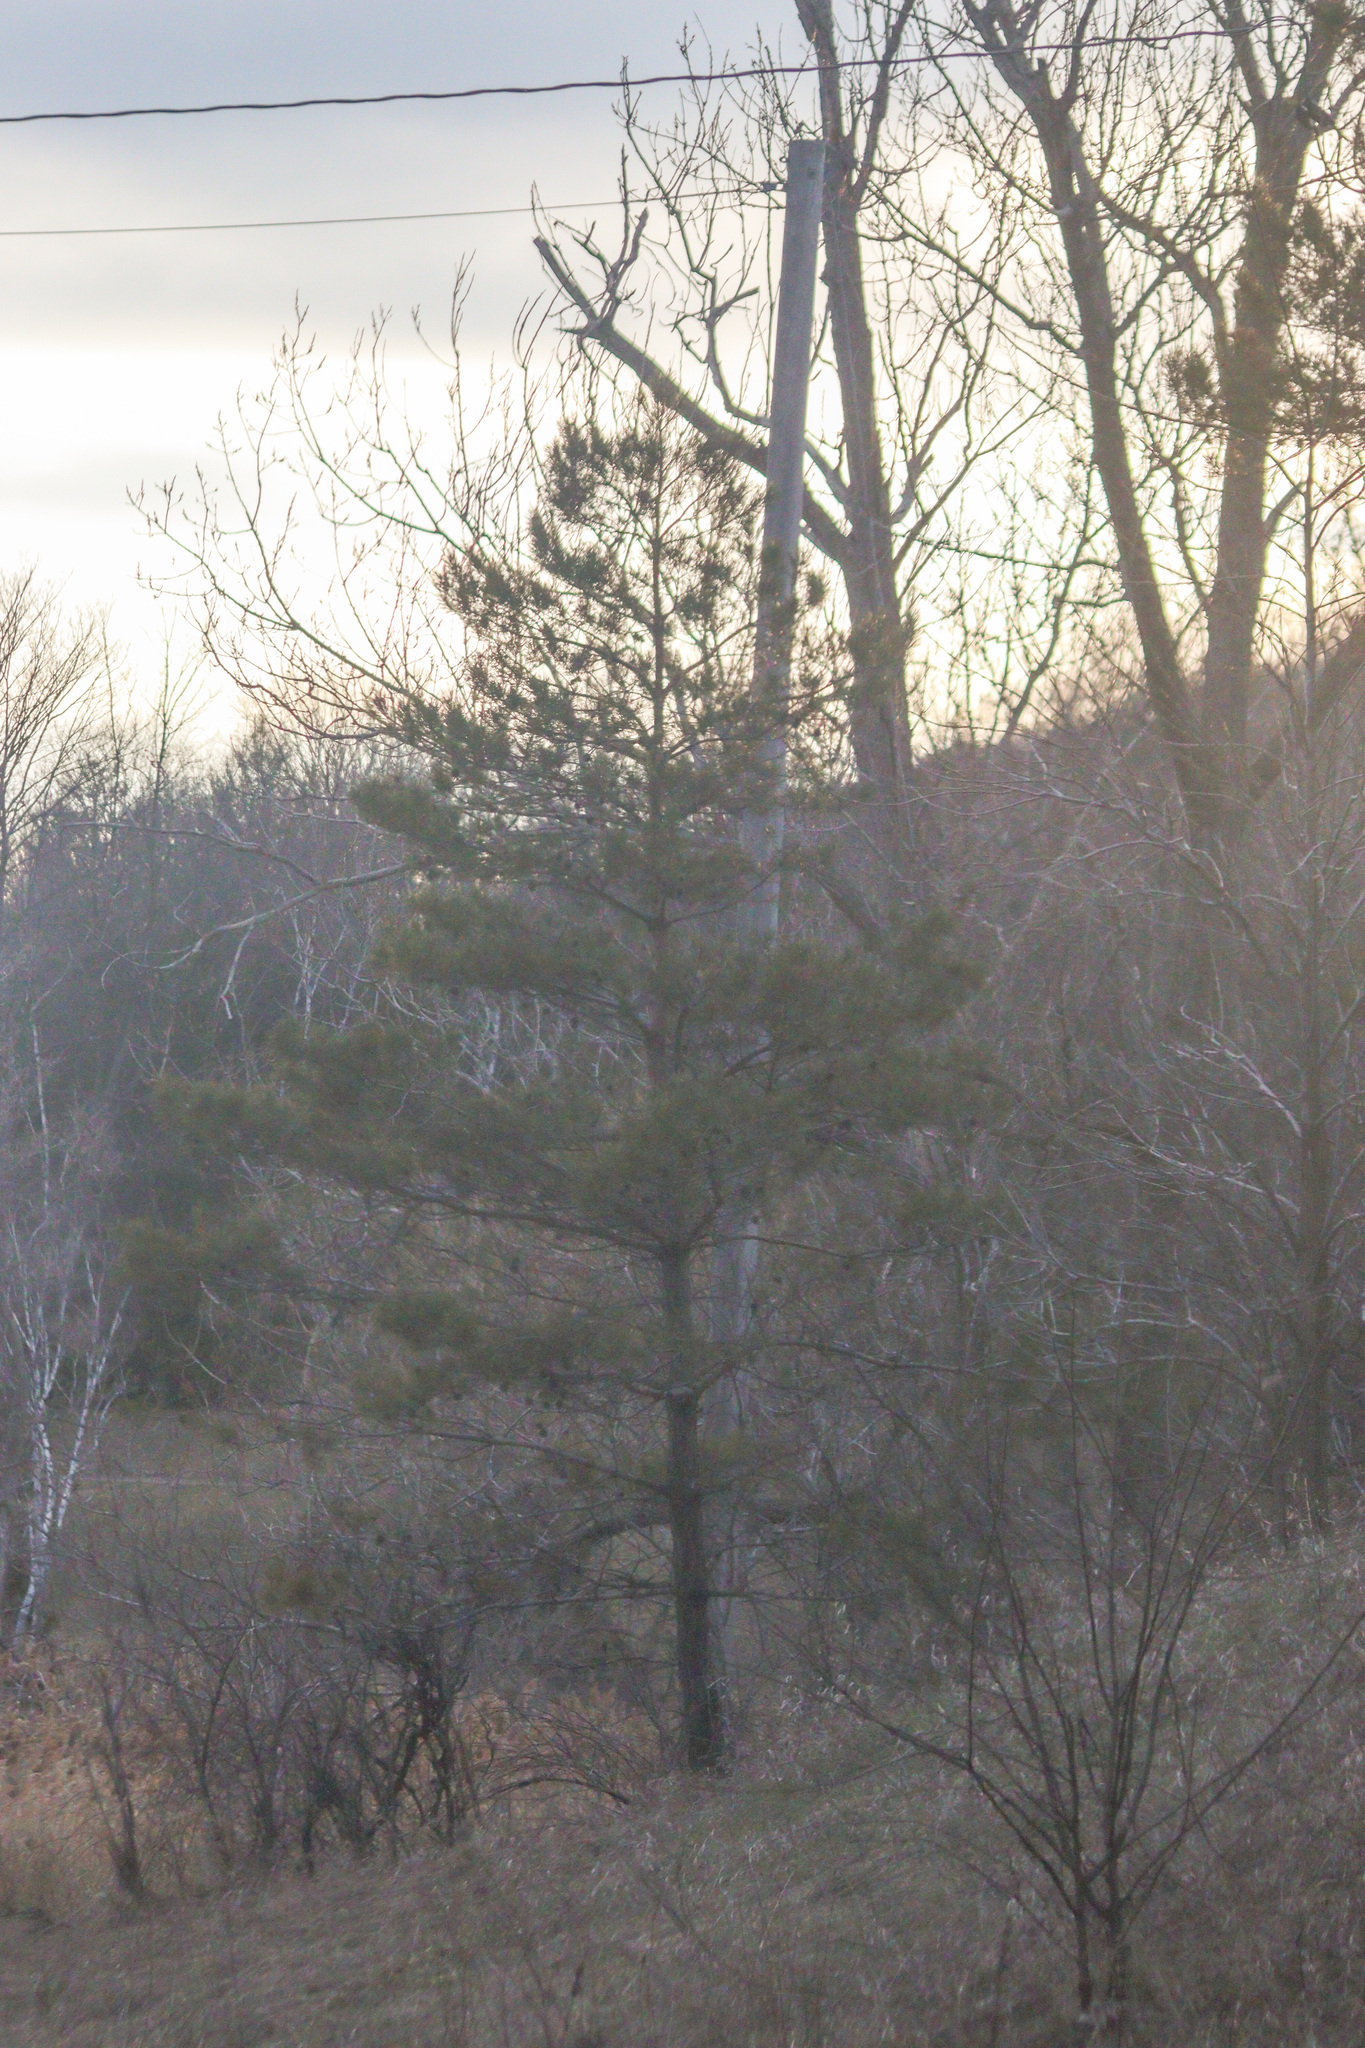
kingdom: Plantae
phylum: Tracheophyta
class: Pinopsida
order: Pinales
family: Pinaceae
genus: Pinus
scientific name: Pinus strobus
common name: Weymouth pine
